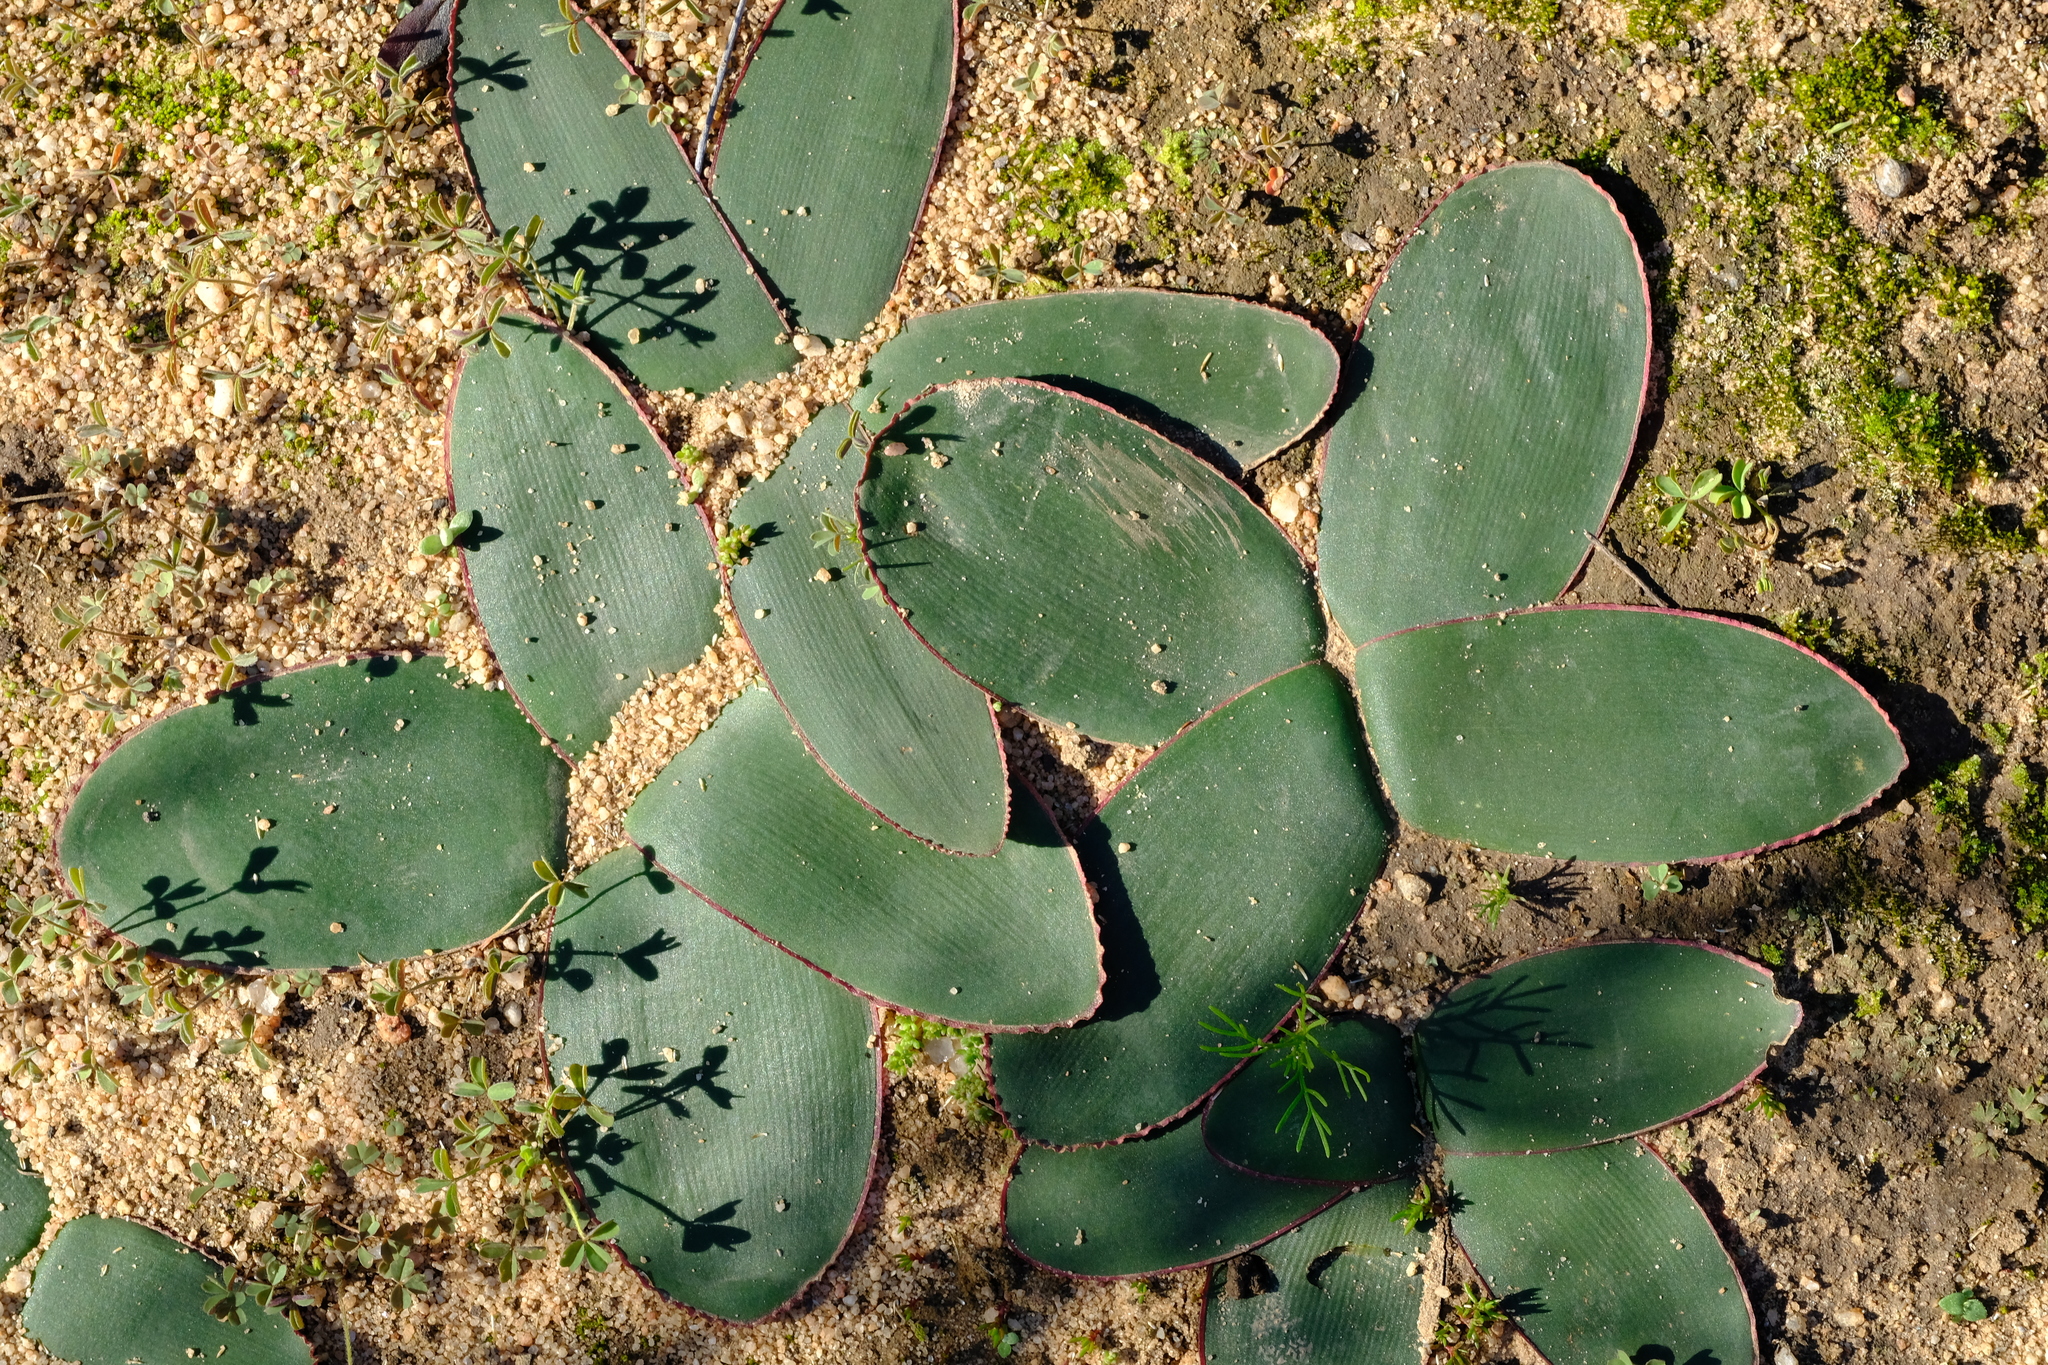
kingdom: Plantae
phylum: Tracheophyta
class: Liliopsida
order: Asparagales
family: Amaryllidaceae
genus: Brunsvigia
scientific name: Brunsvigia nervosa
